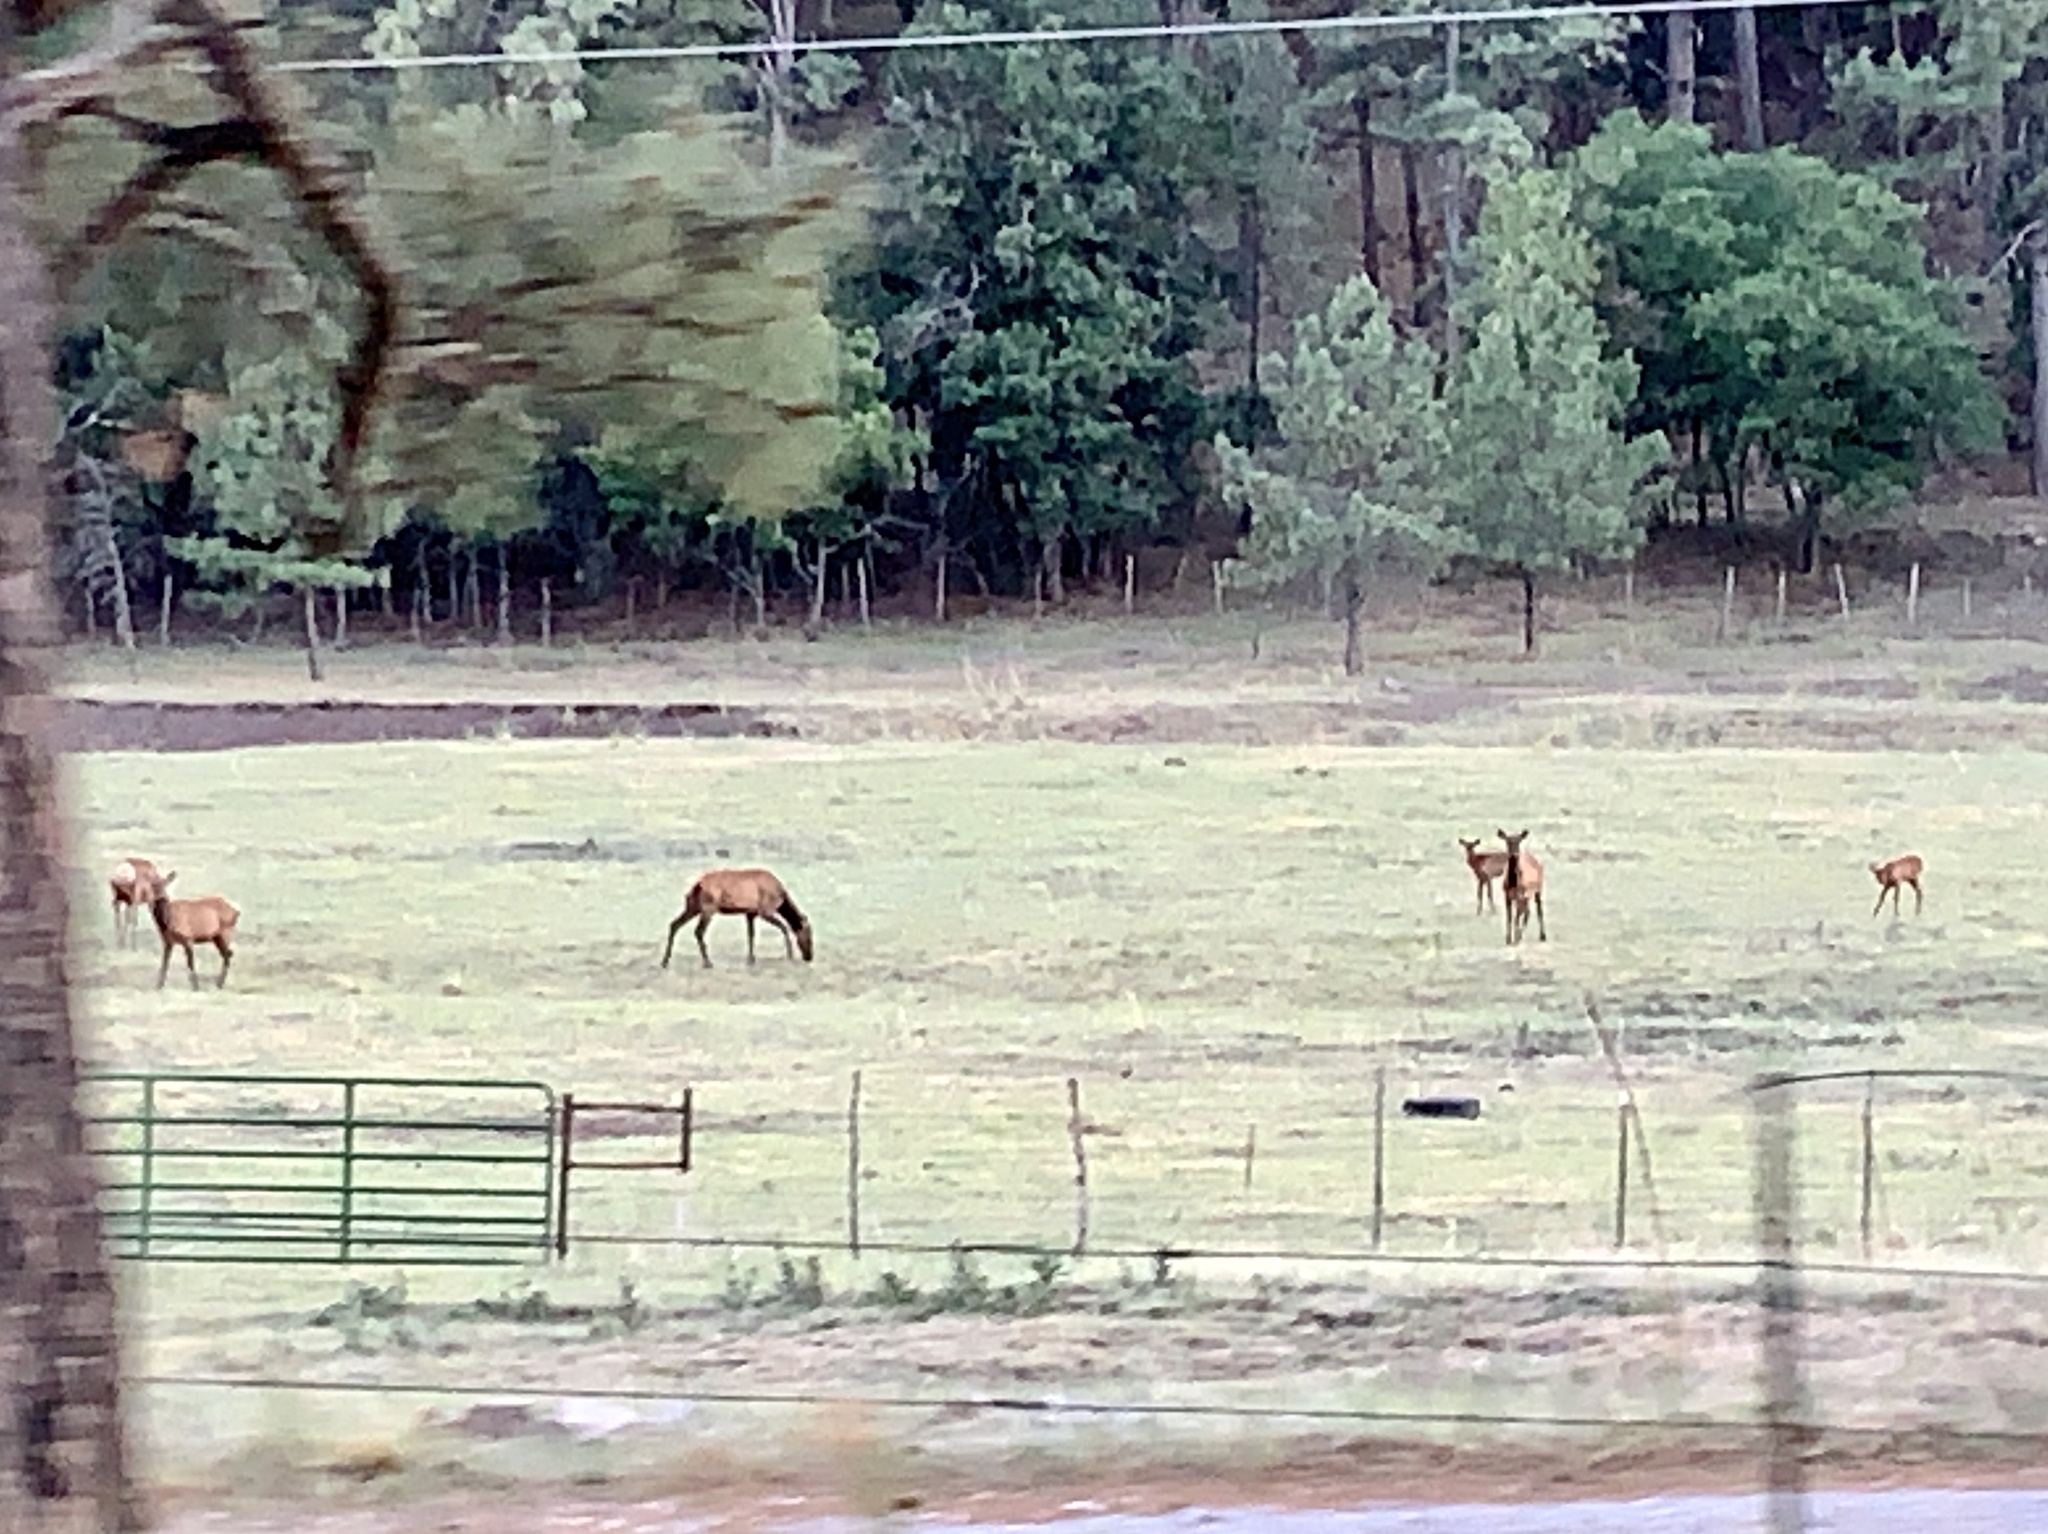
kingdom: Animalia
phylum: Chordata
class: Mammalia
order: Artiodactyla
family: Cervidae
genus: Cervus
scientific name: Cervus elaphus
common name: Red deer
